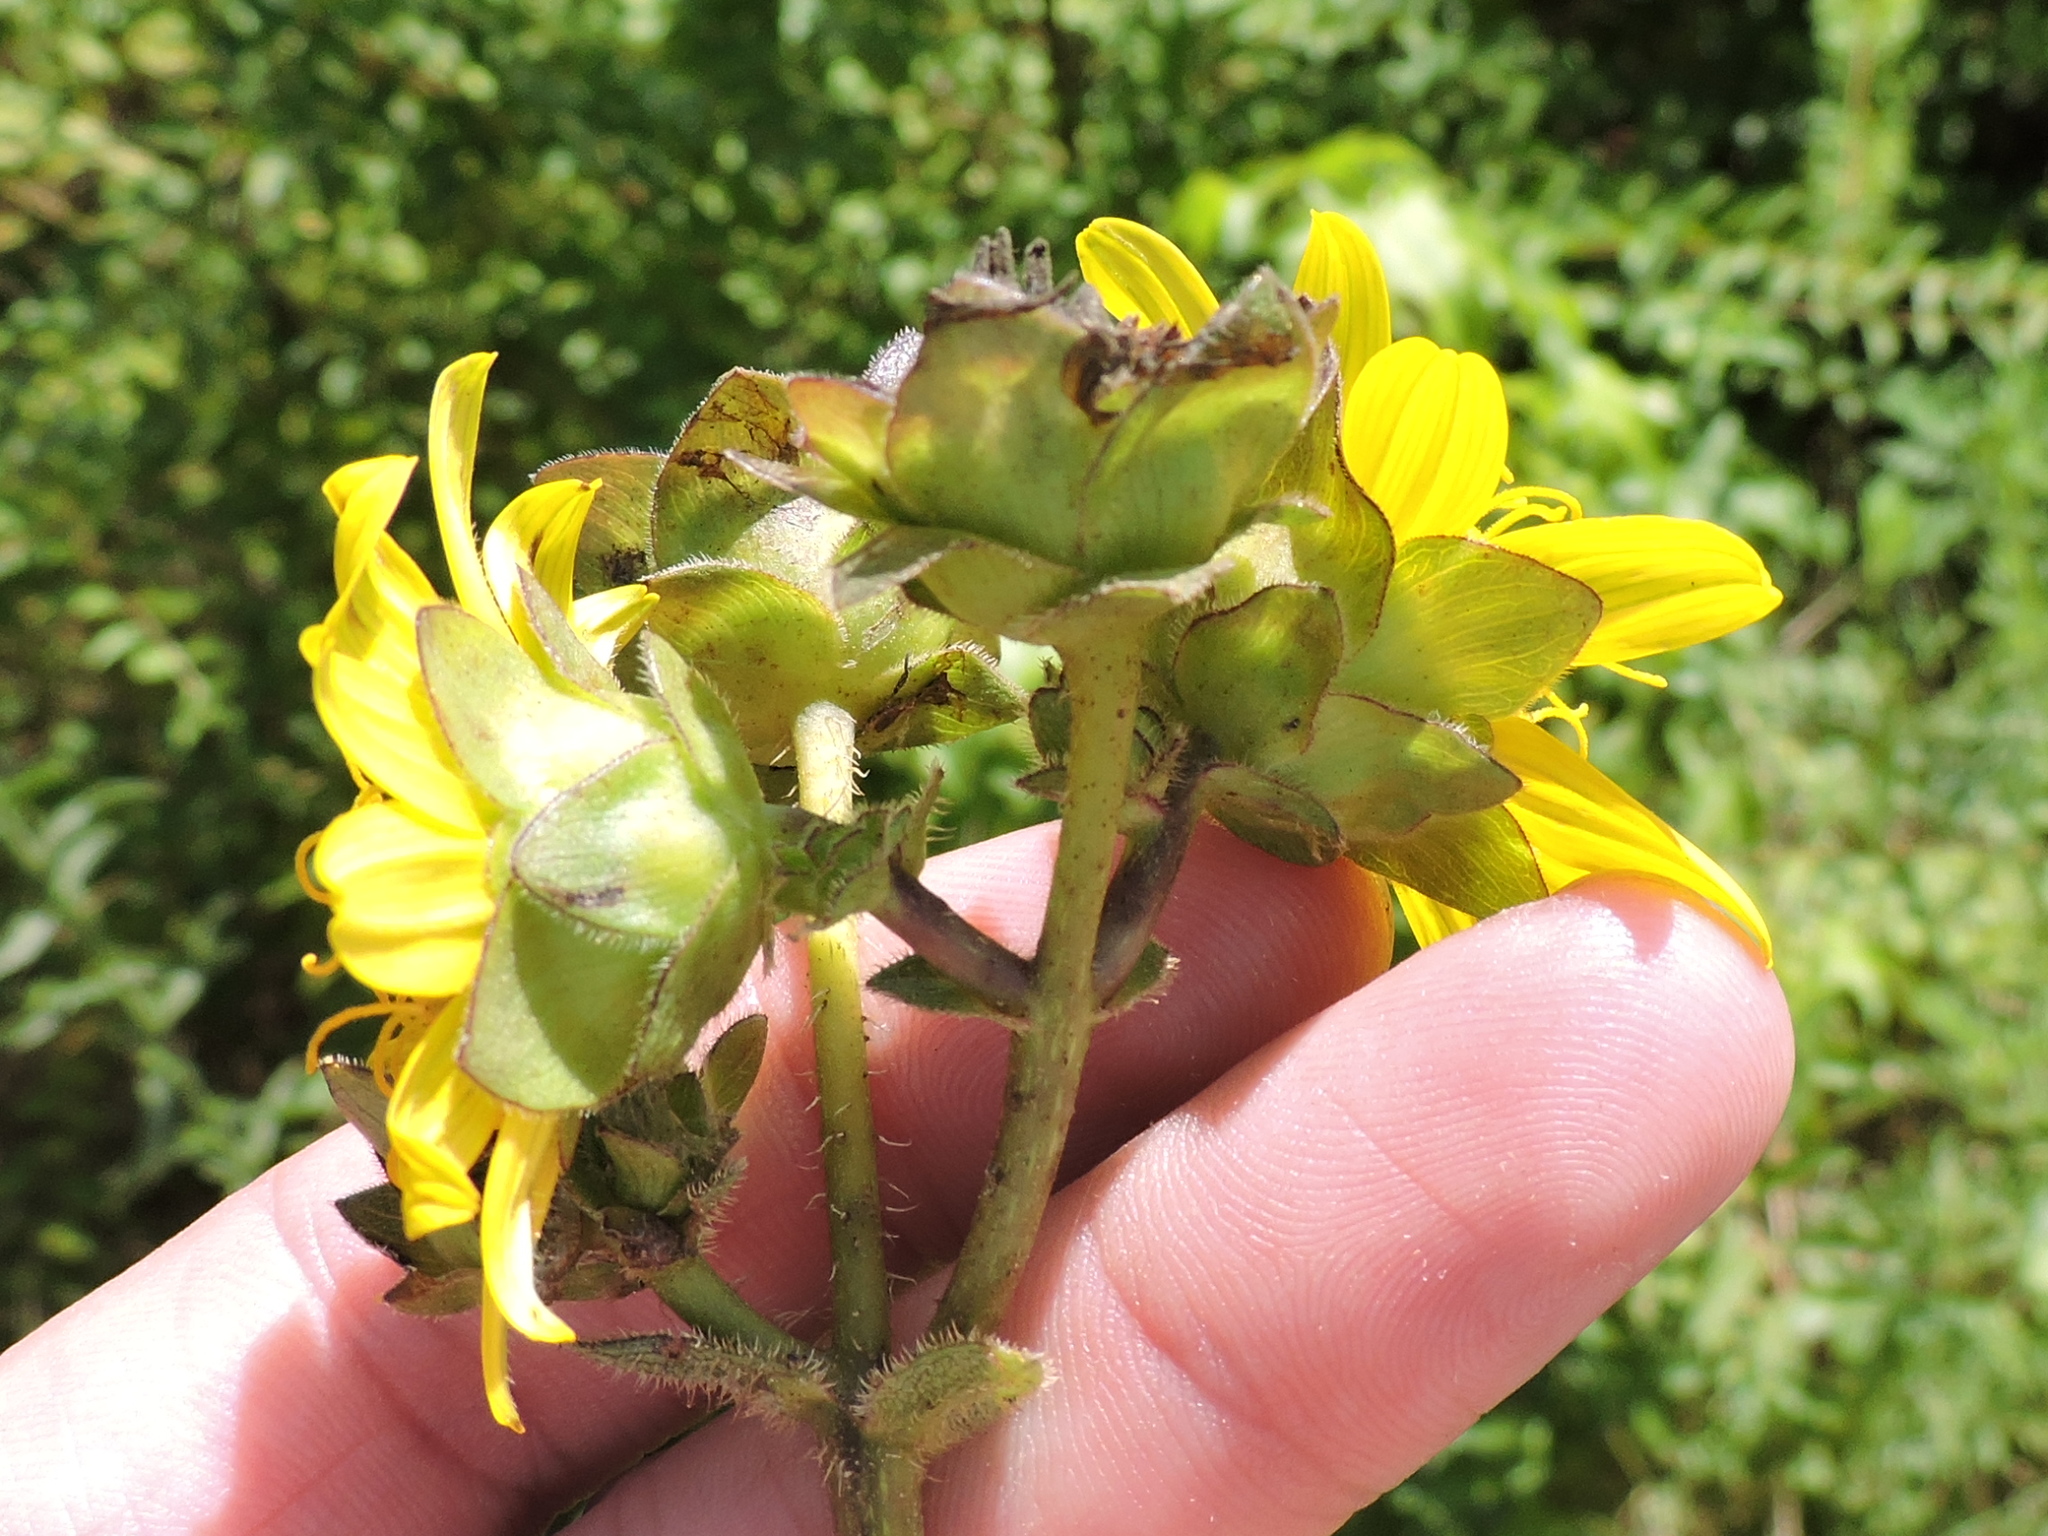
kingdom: Plantae
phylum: Tracheophyta
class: Magnoliopsida
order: Asterales
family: Asteraceae
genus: Silphium
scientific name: Silphium radula
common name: Roughleaf rosinweed
